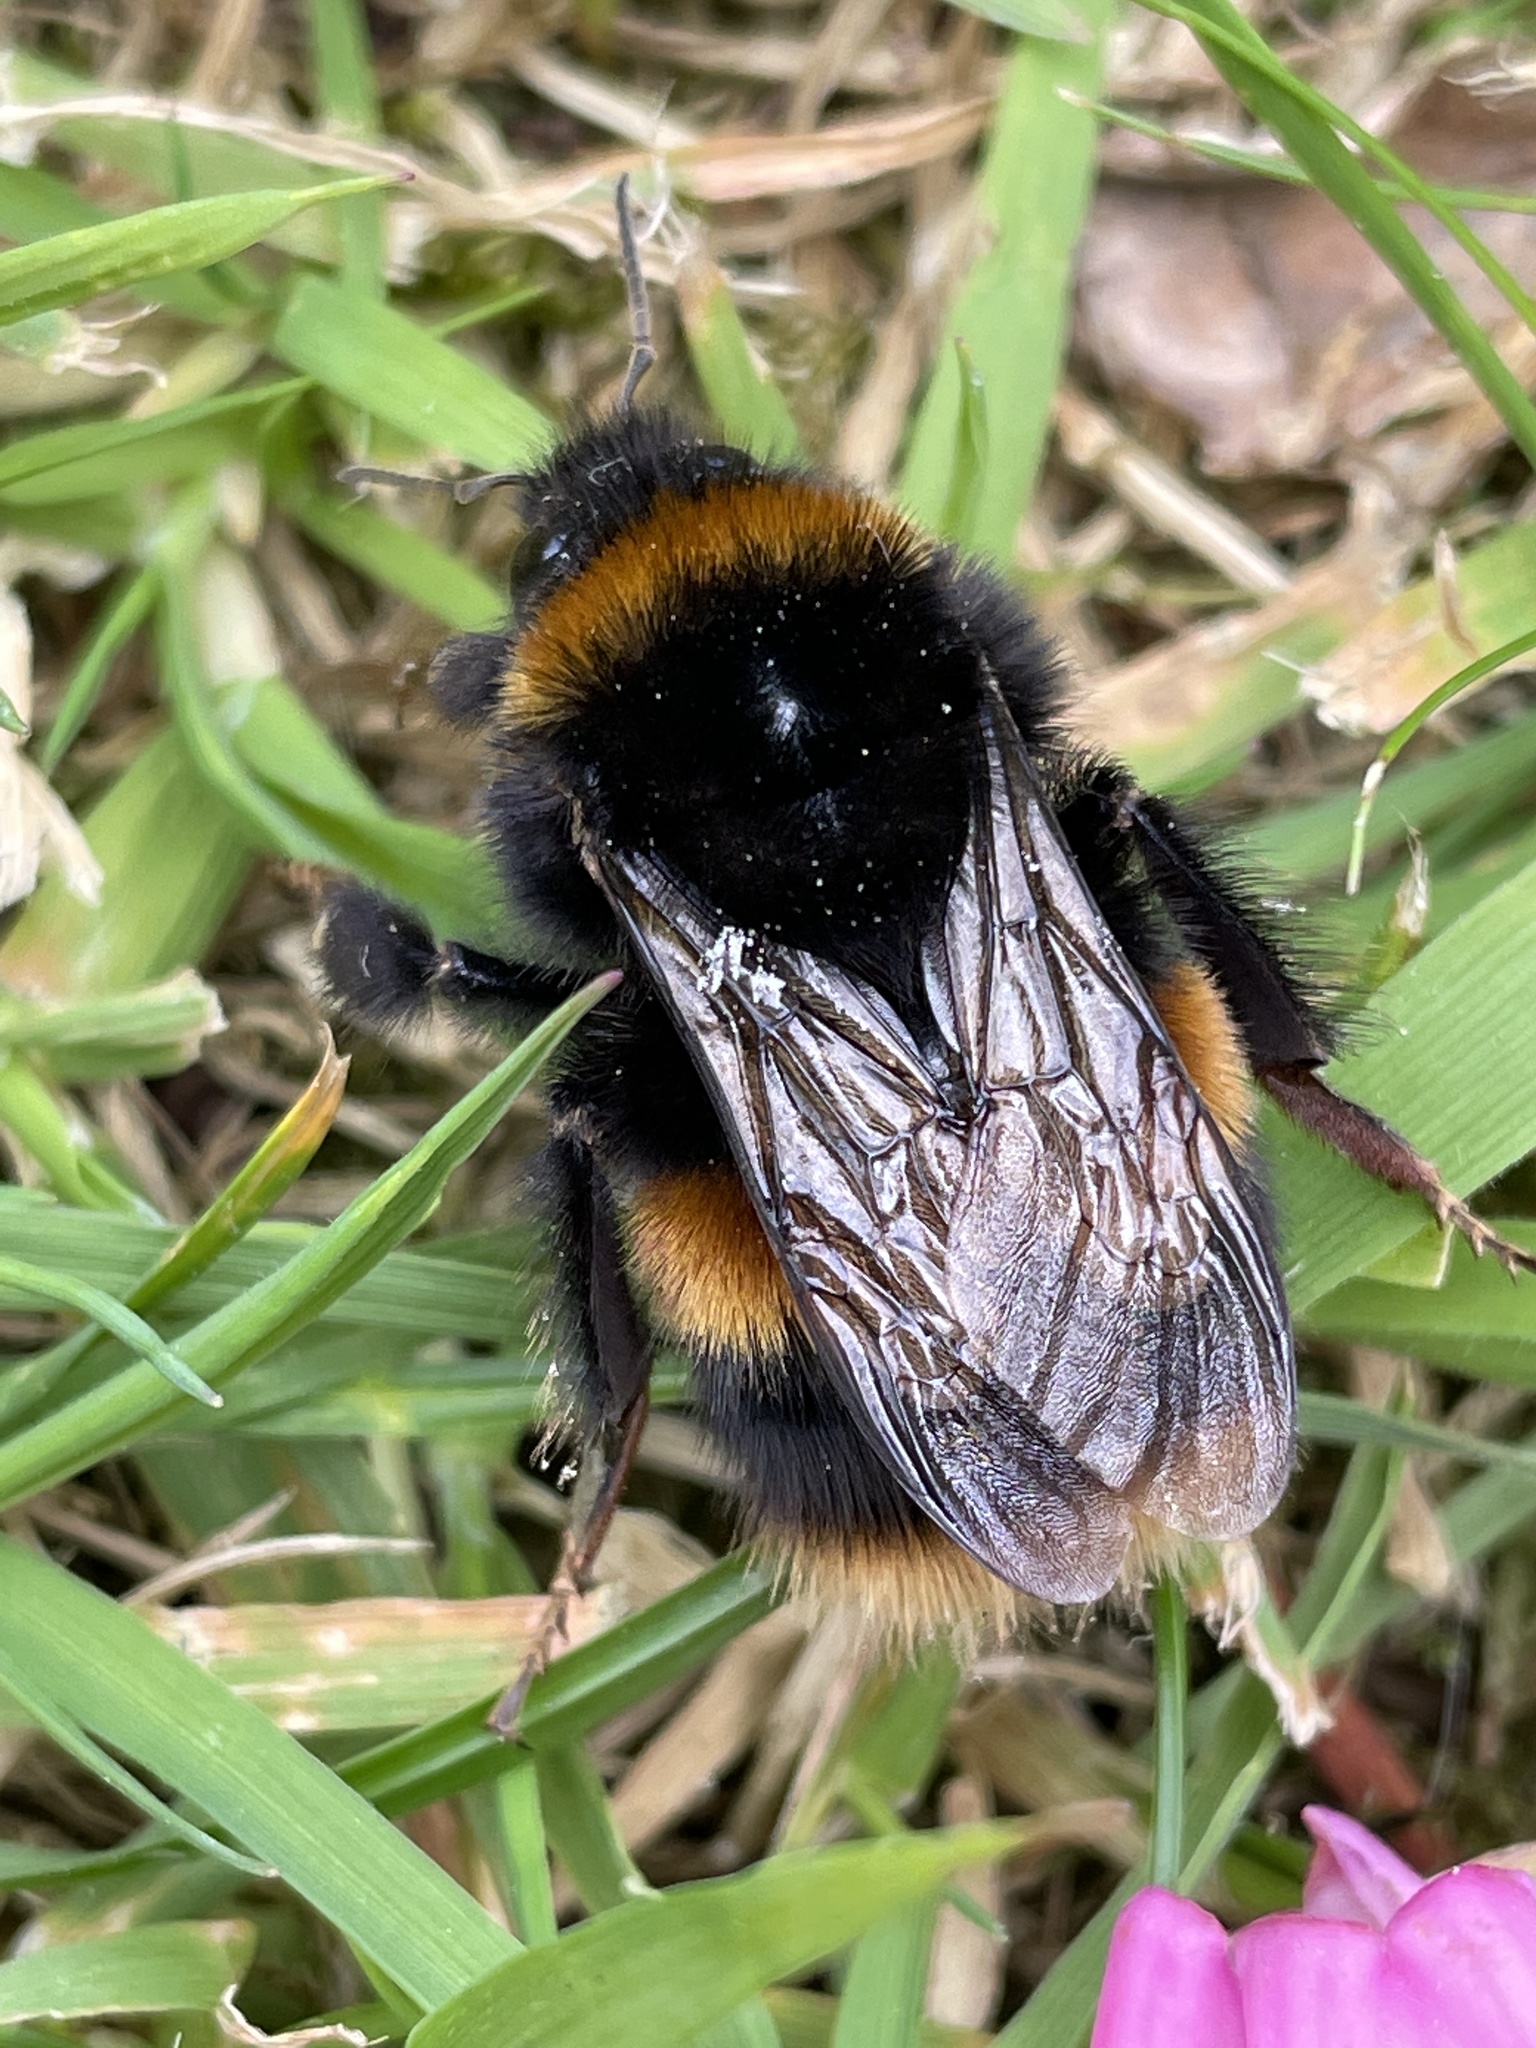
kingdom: Animalia
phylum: Arthropoda
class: Insecta
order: Hymenoptera
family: Apidae
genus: Bombus
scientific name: Bombus terrestris
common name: Buff-tailed bumblebee
